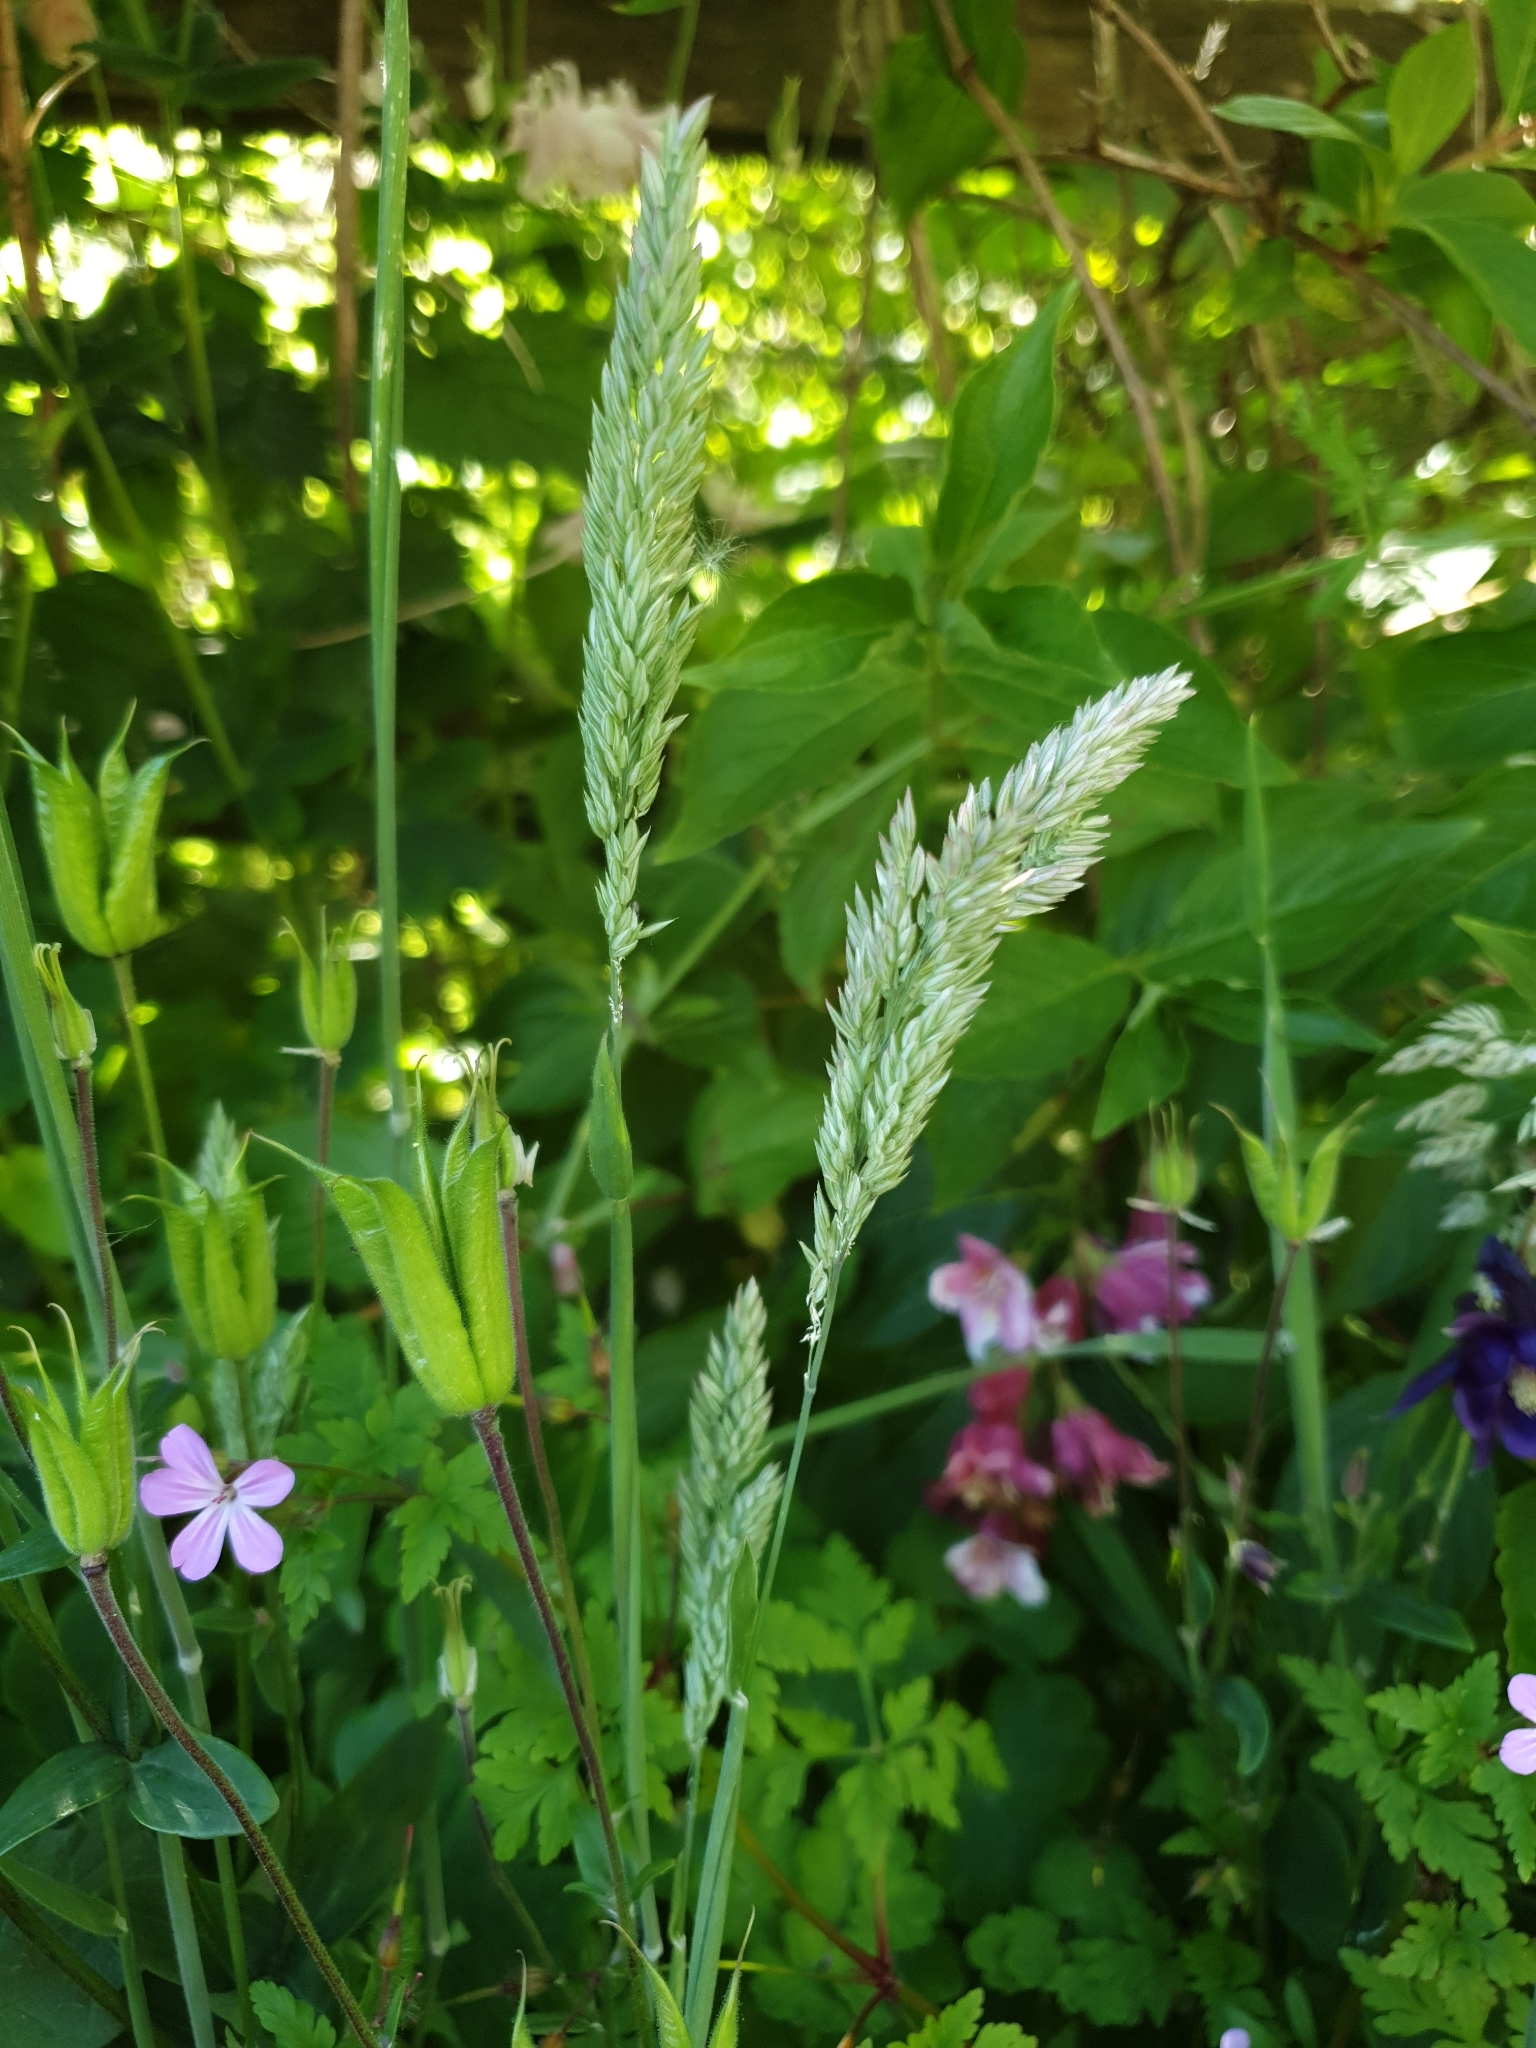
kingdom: Plantae
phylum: Tracheophyta
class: Liliopsida
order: Poales
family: Poaceae
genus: Holcus
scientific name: Holcus lanatus
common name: Yorkshire-fog
